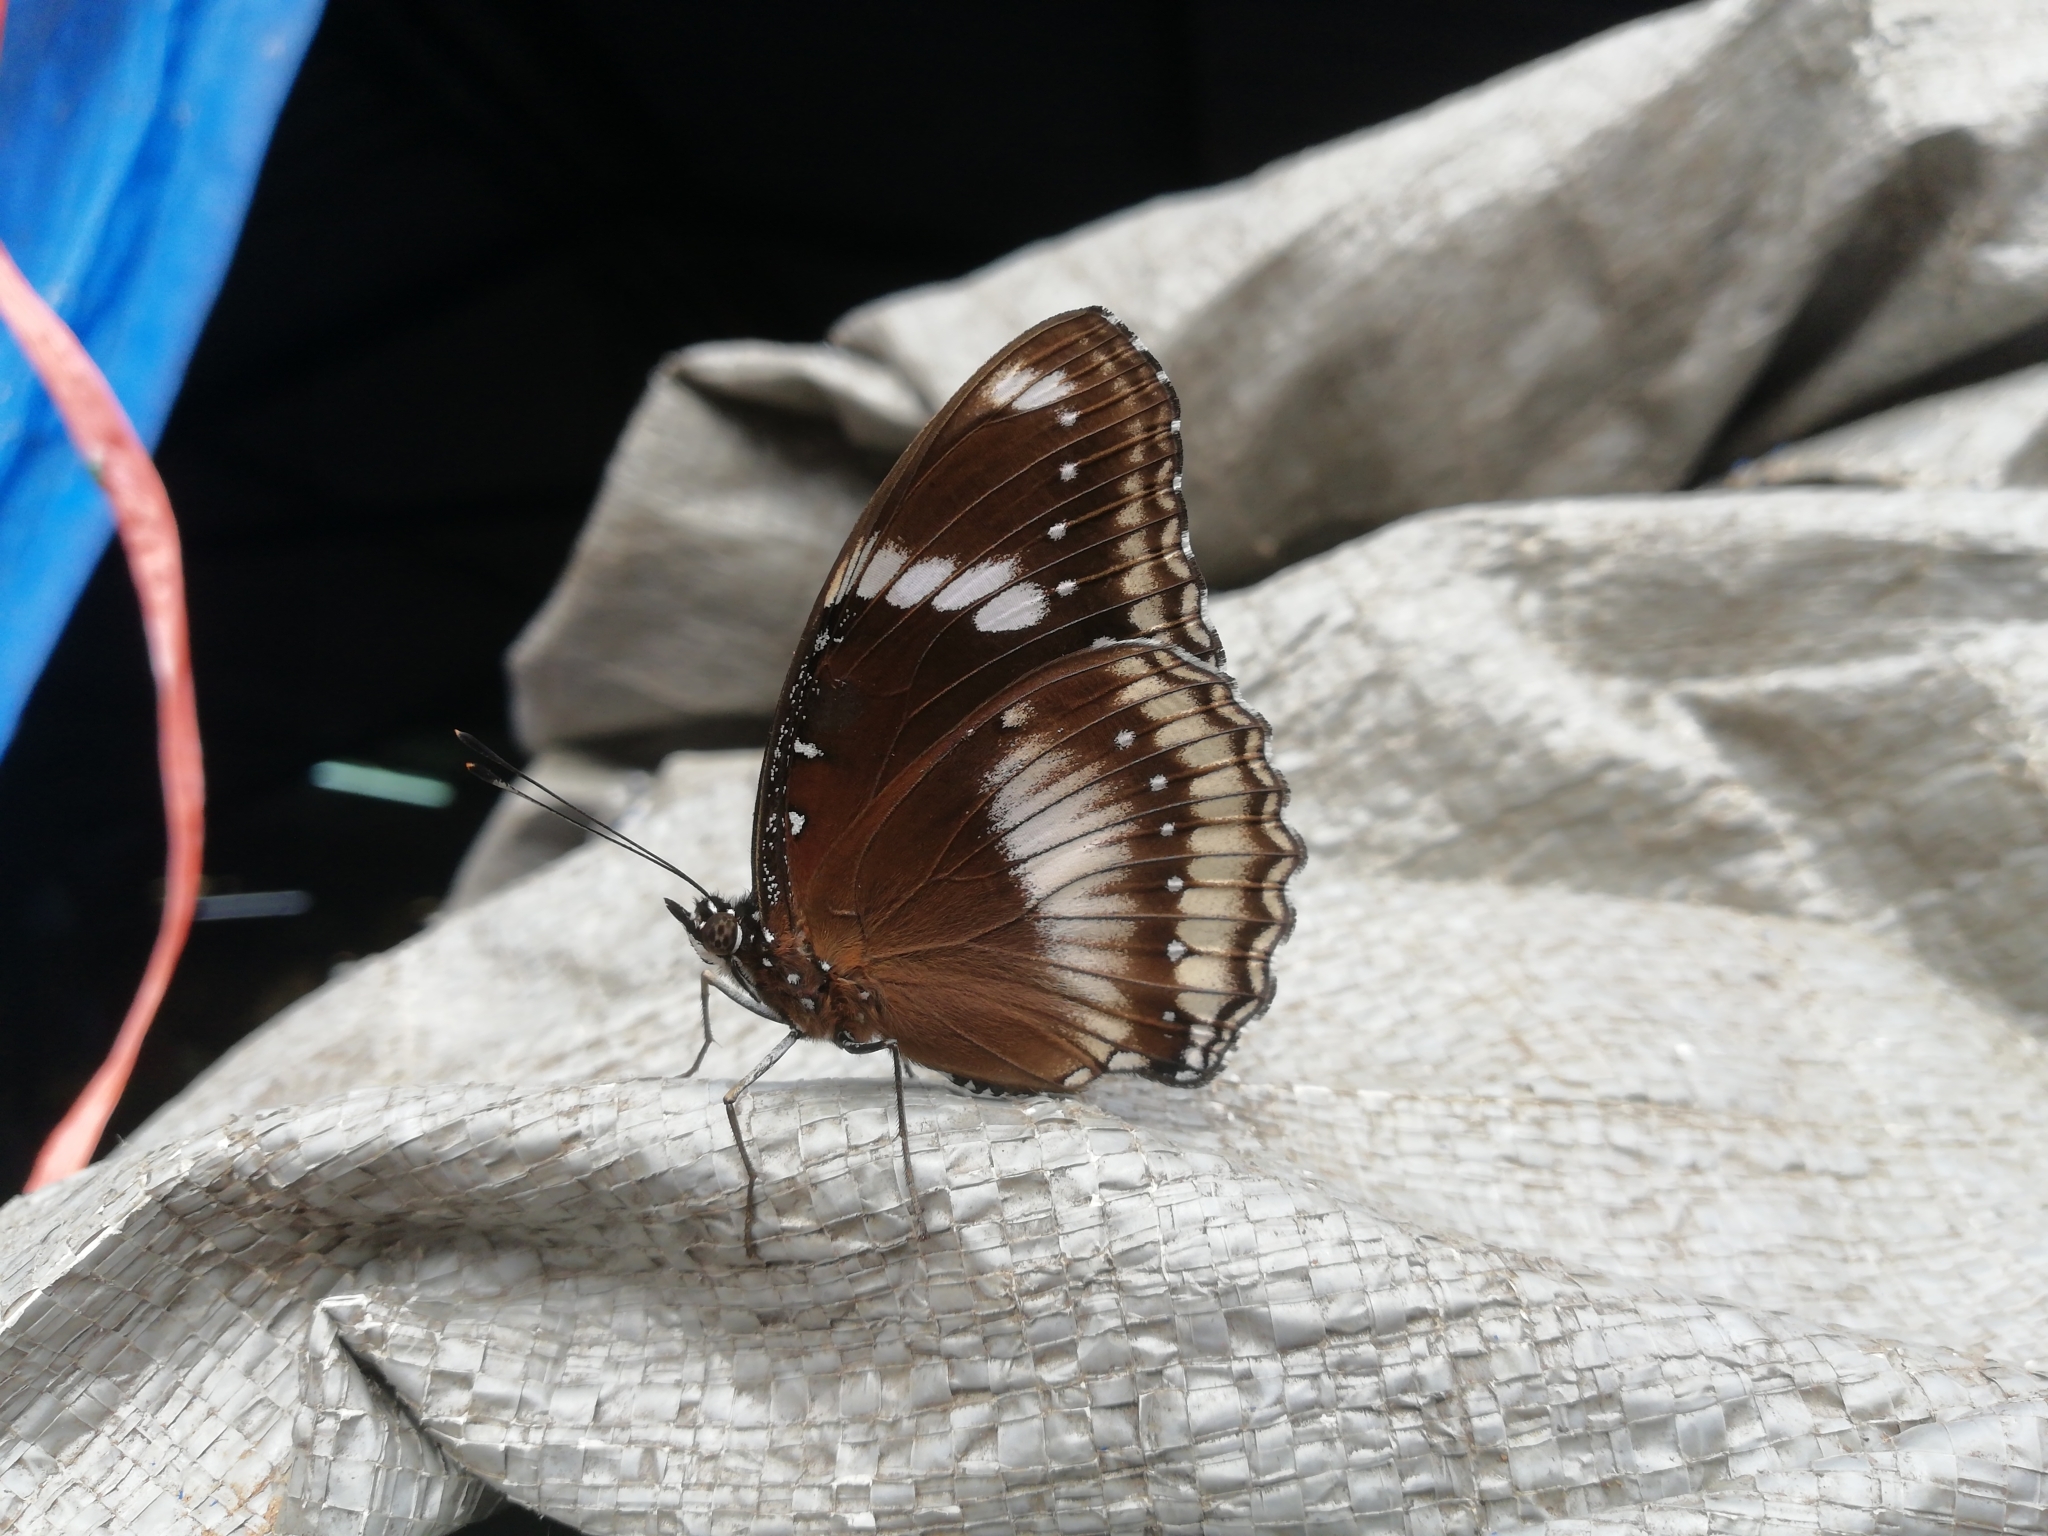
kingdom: Animalia
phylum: Arthropoda
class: Insecta
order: Lepidoptera
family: Nymphalidae
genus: Hypolimnas
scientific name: Hypolimnas bolina
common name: Great eggfly
